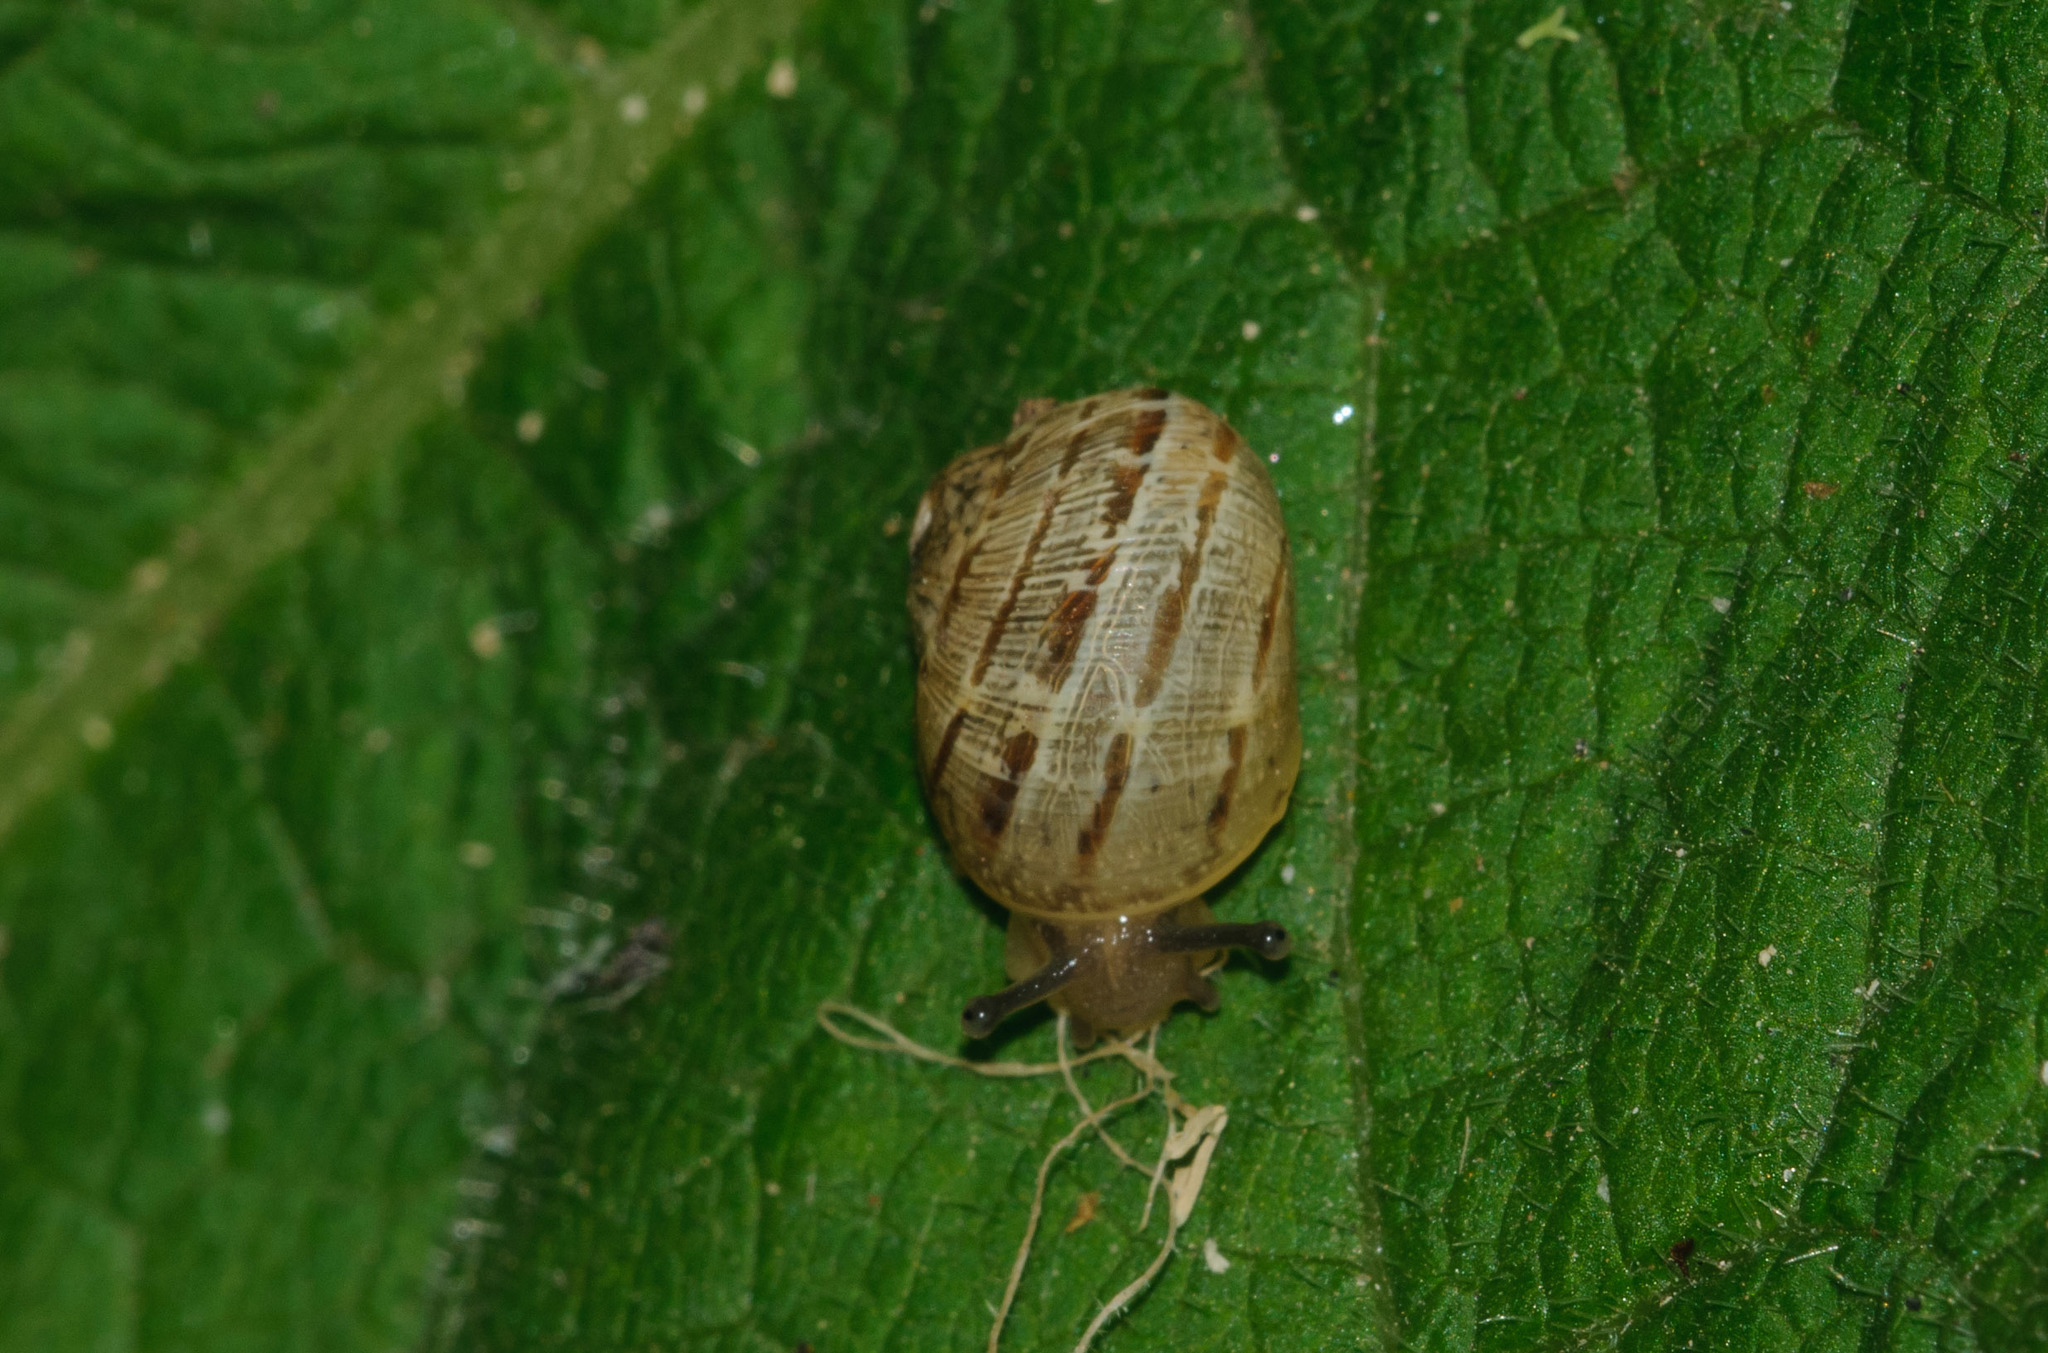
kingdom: Animalia
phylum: Mollusca
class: Gastropoda
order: Stylommatophora
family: Helicidae
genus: Cornu
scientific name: Cornu aspersum
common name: Brown garden snail
